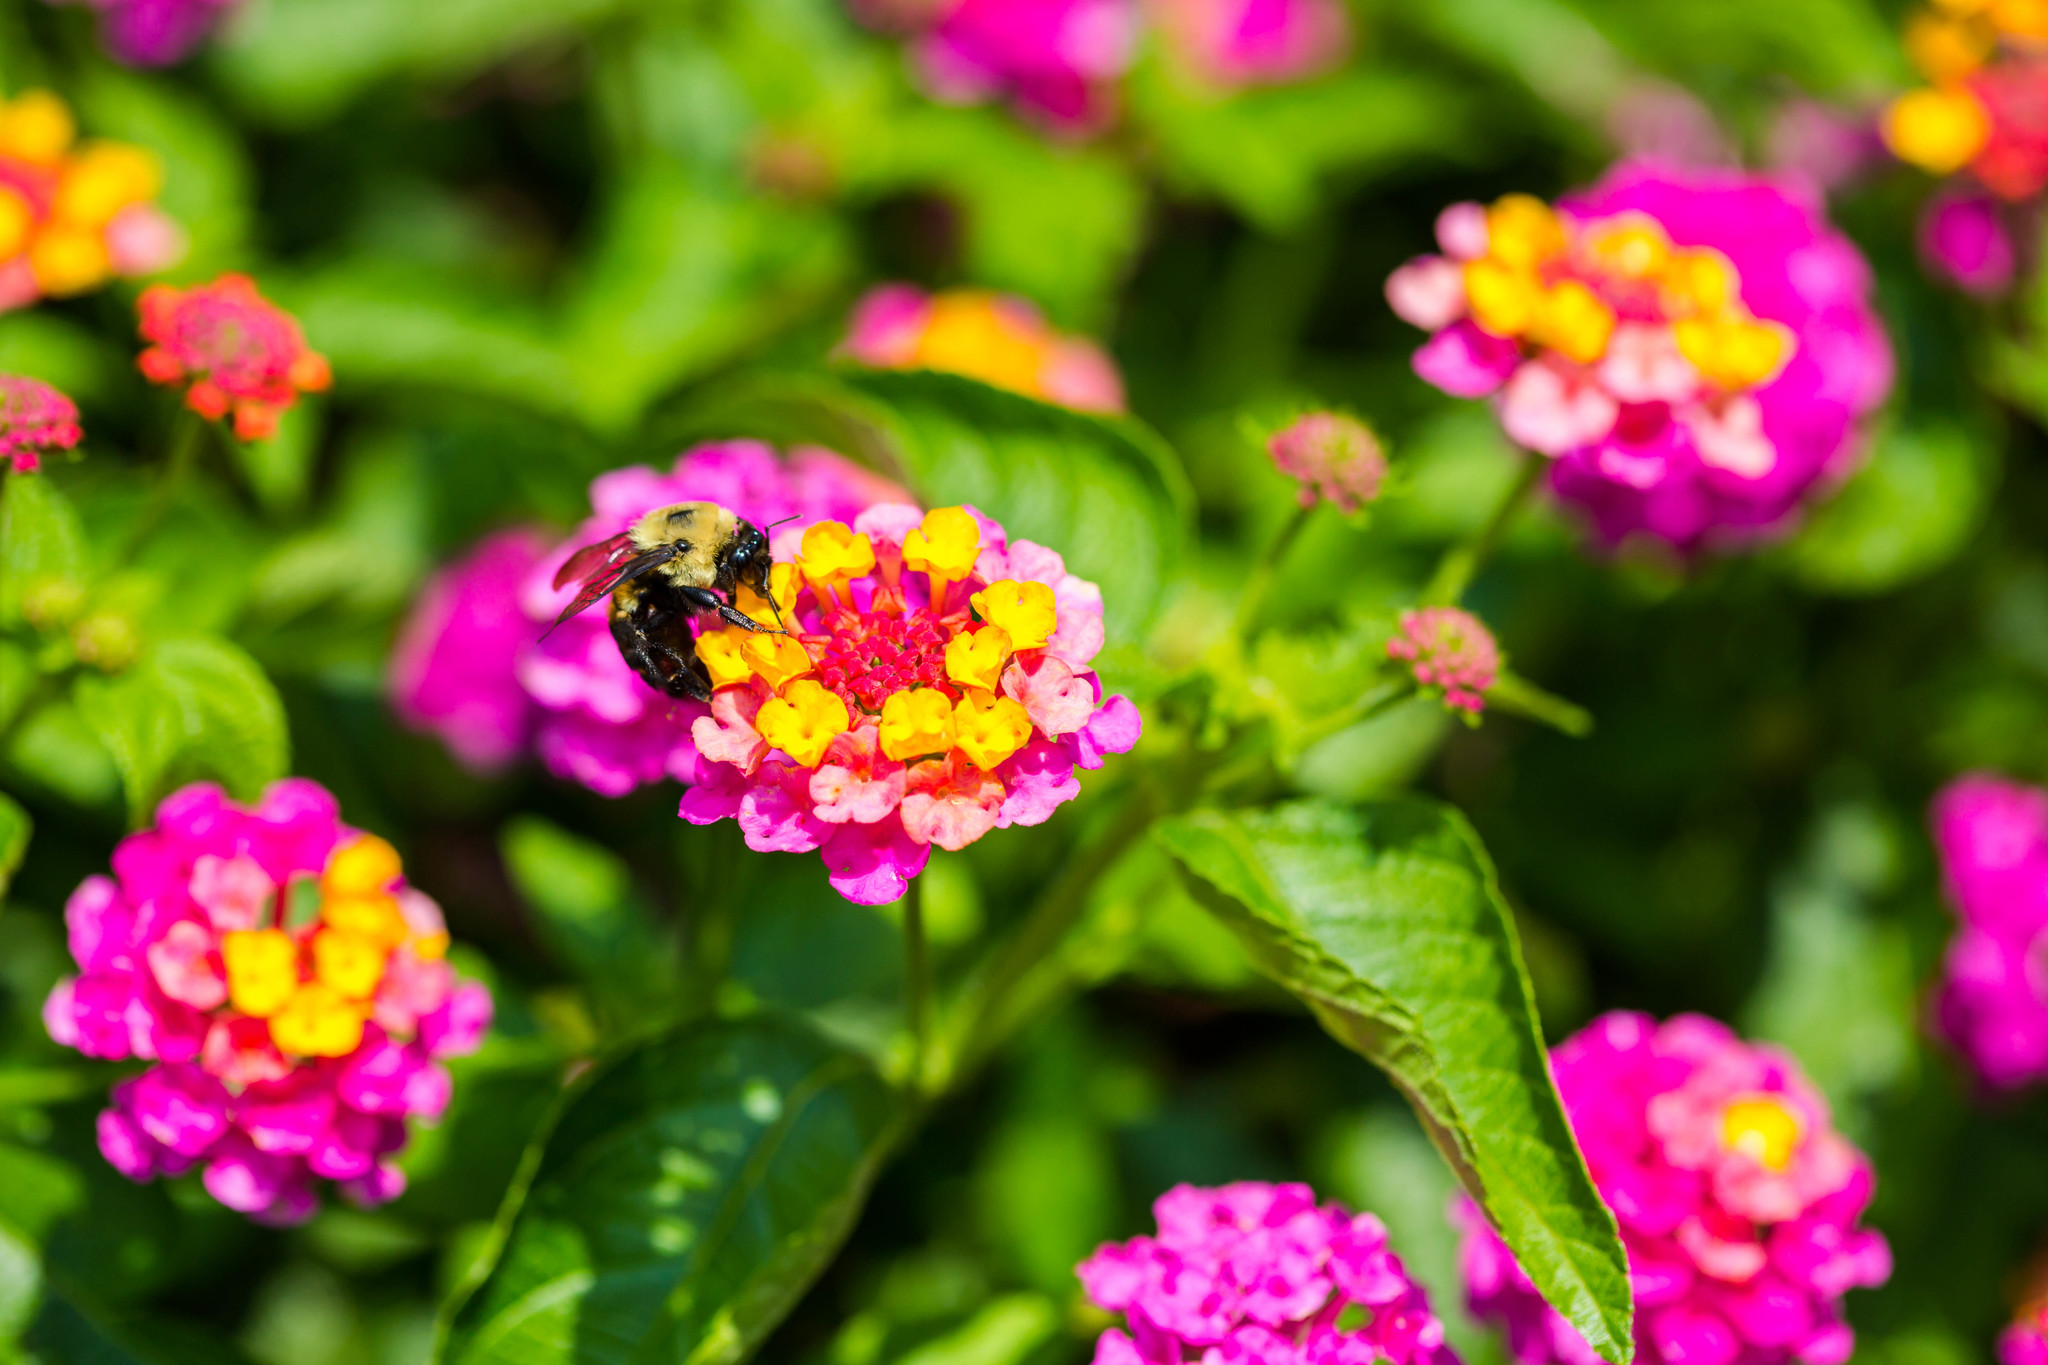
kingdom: Animalia
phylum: Arthropoda
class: Insecta
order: Hymenoptera
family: Apidae
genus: Bombus
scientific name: Bombus griseocollis
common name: Brown-belted bumble bee
